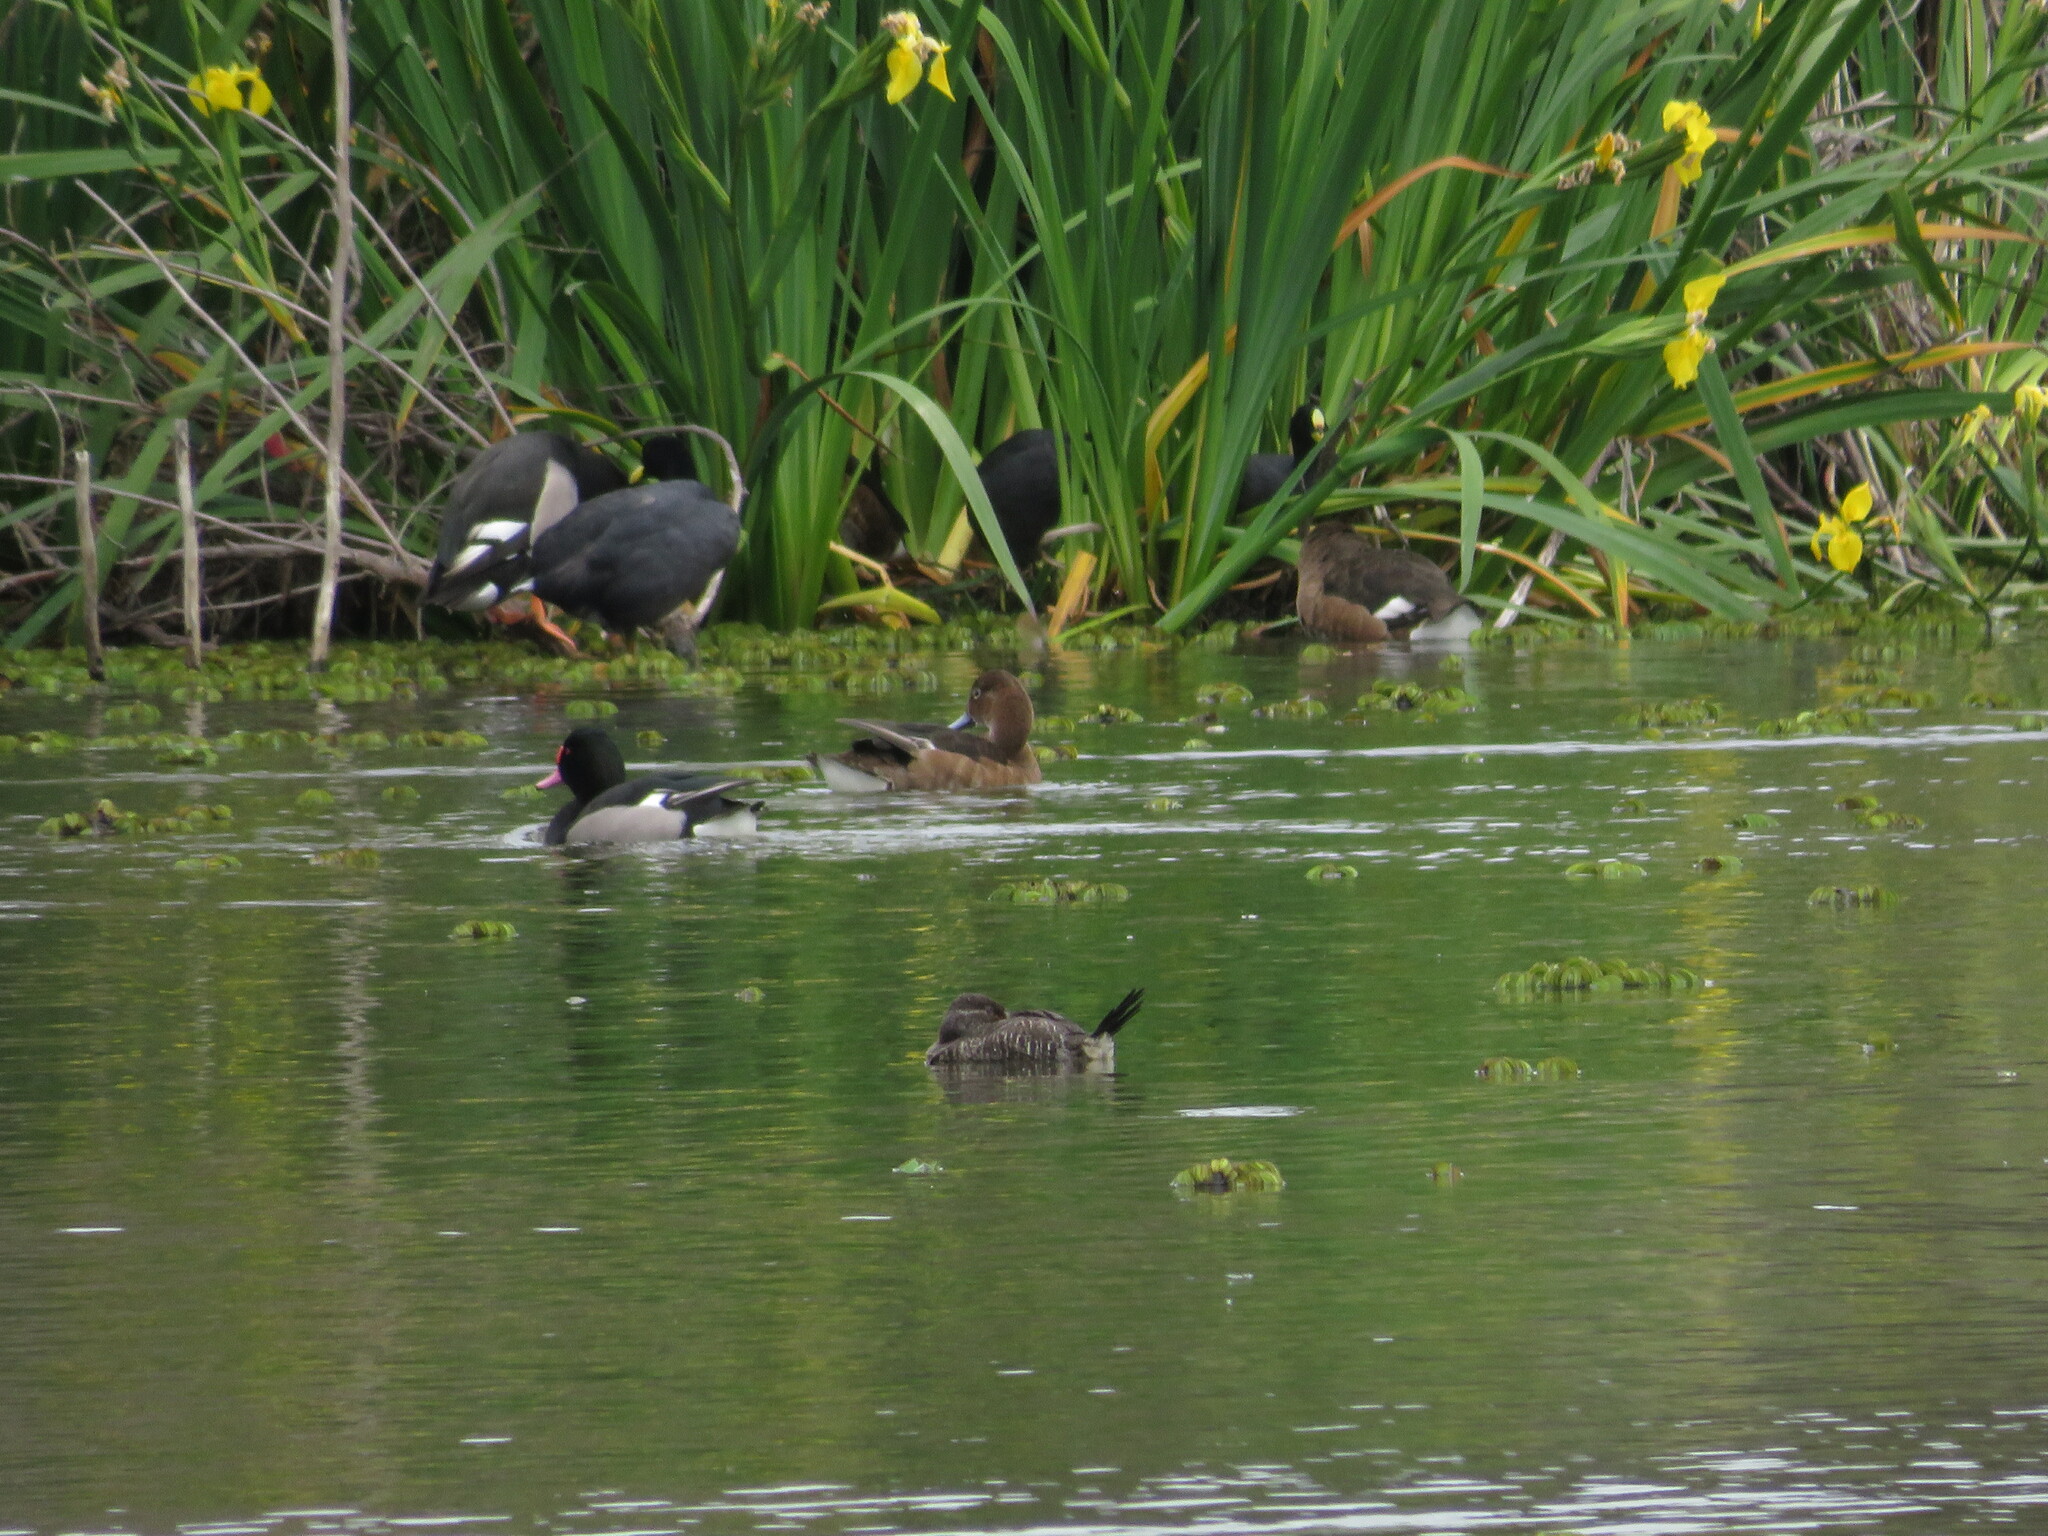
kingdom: Animalia
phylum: Chordata
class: Aves
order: Anseriformes
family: Anatidae
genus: Oxyura
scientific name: Oxyura vittata
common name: Lake duck
